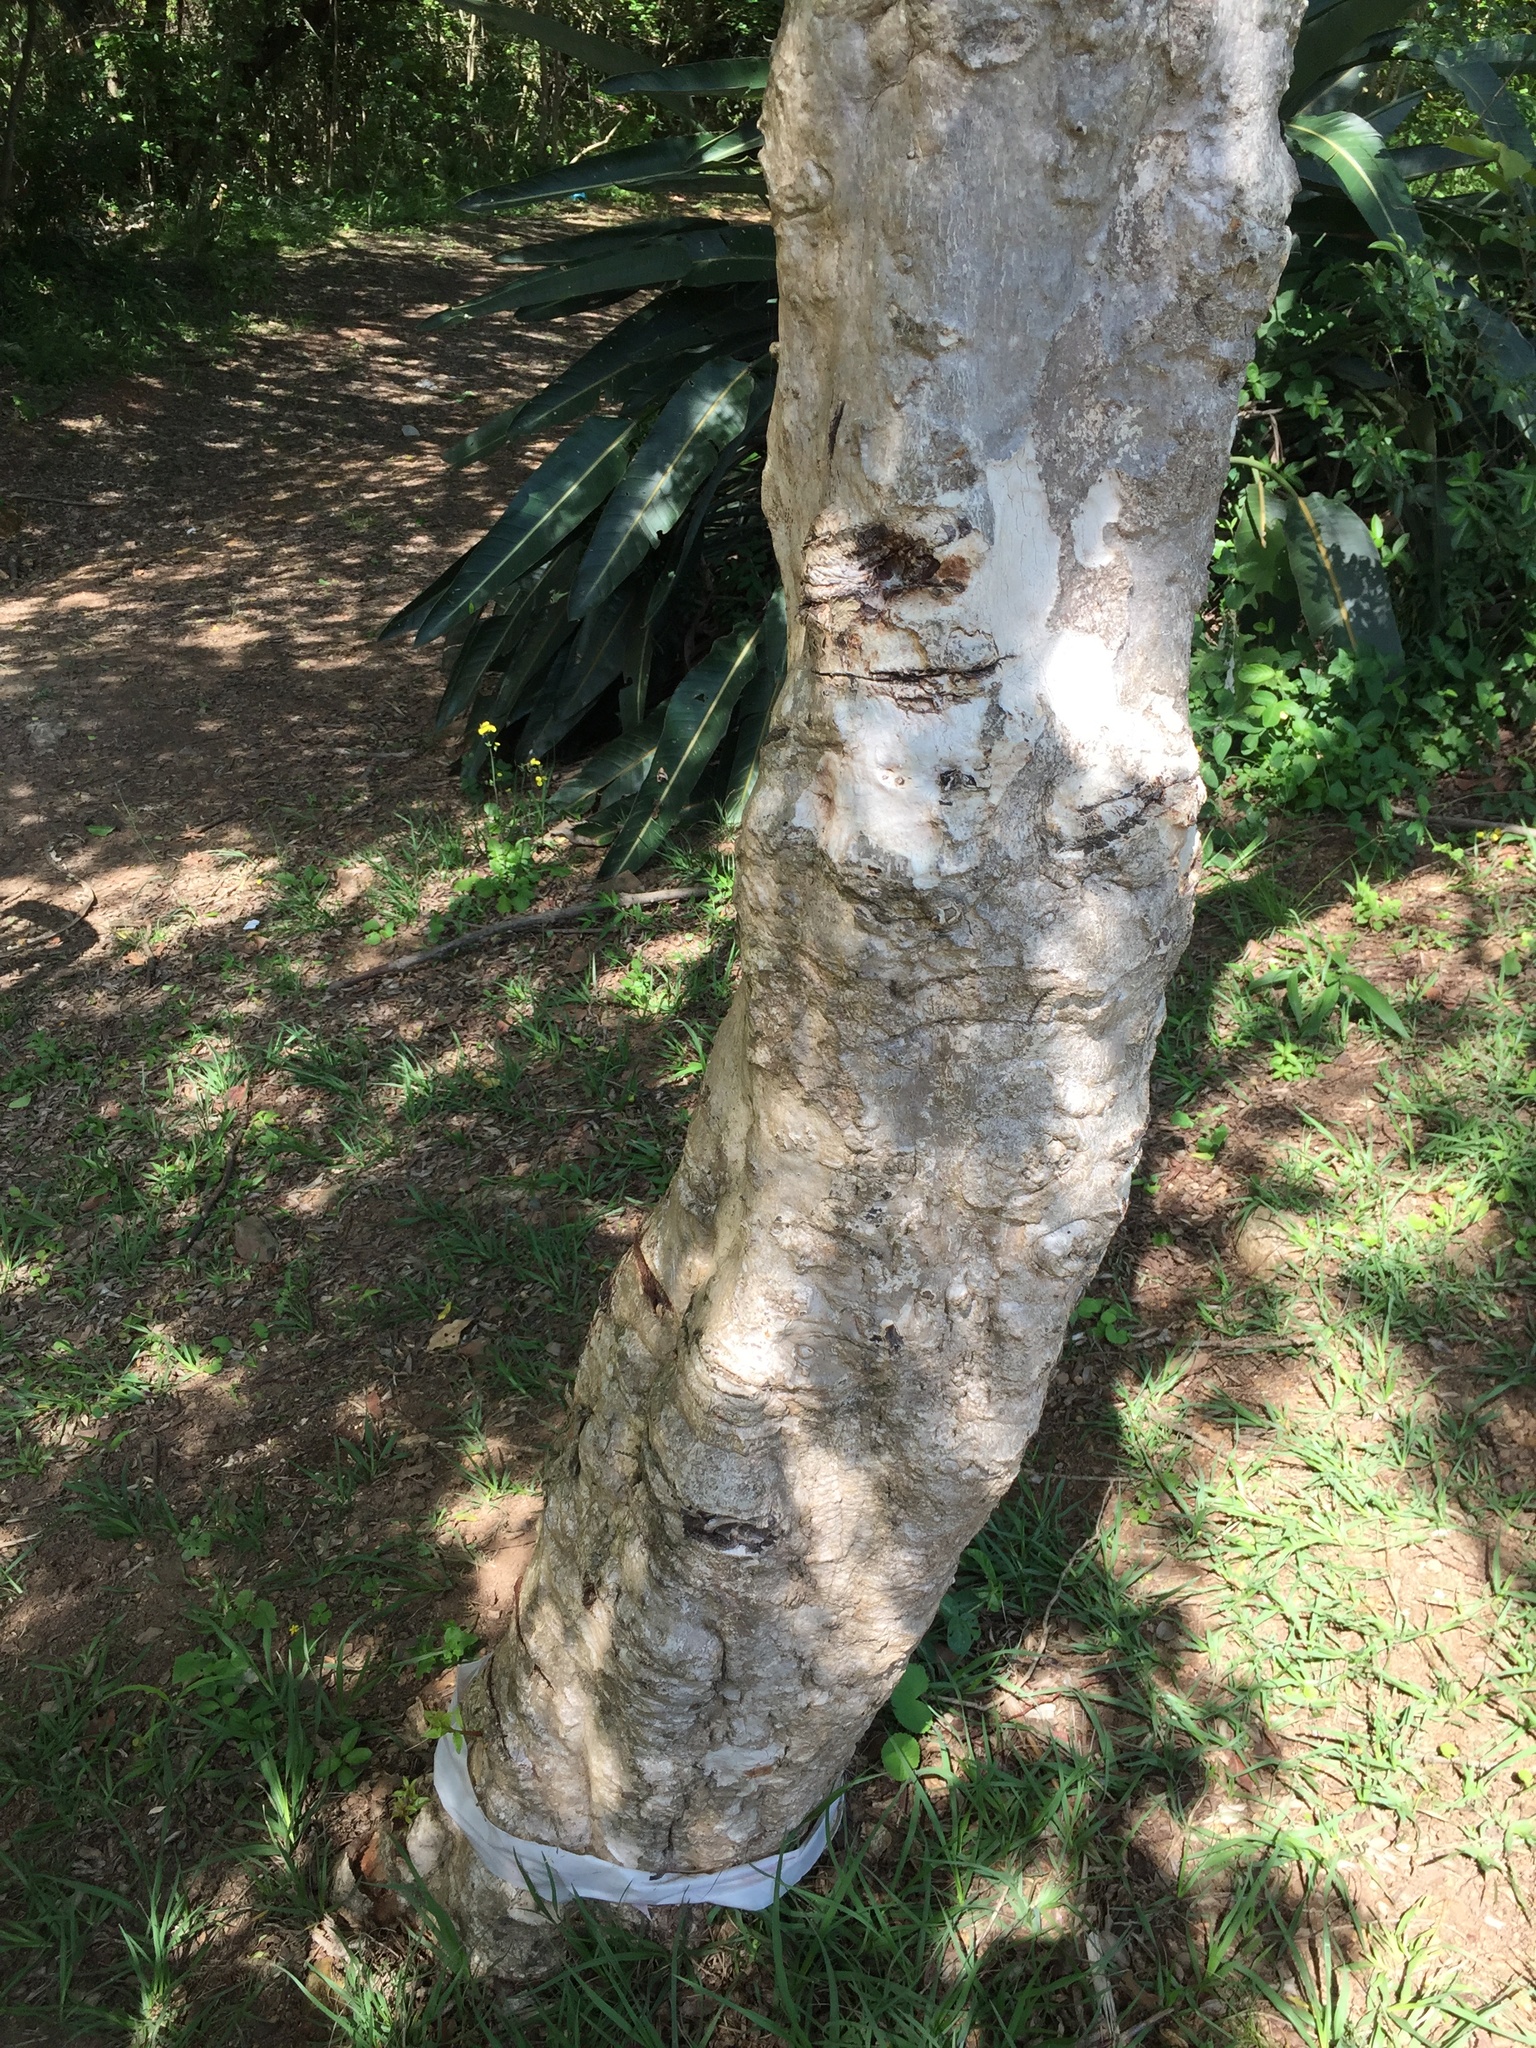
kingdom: Plantae
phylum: Tracheophyta
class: Magnoliopsida
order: Myrtales
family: Myrtaceae
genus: Heteropyxis
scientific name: Heteropyxis natalensis
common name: Lavender tree
